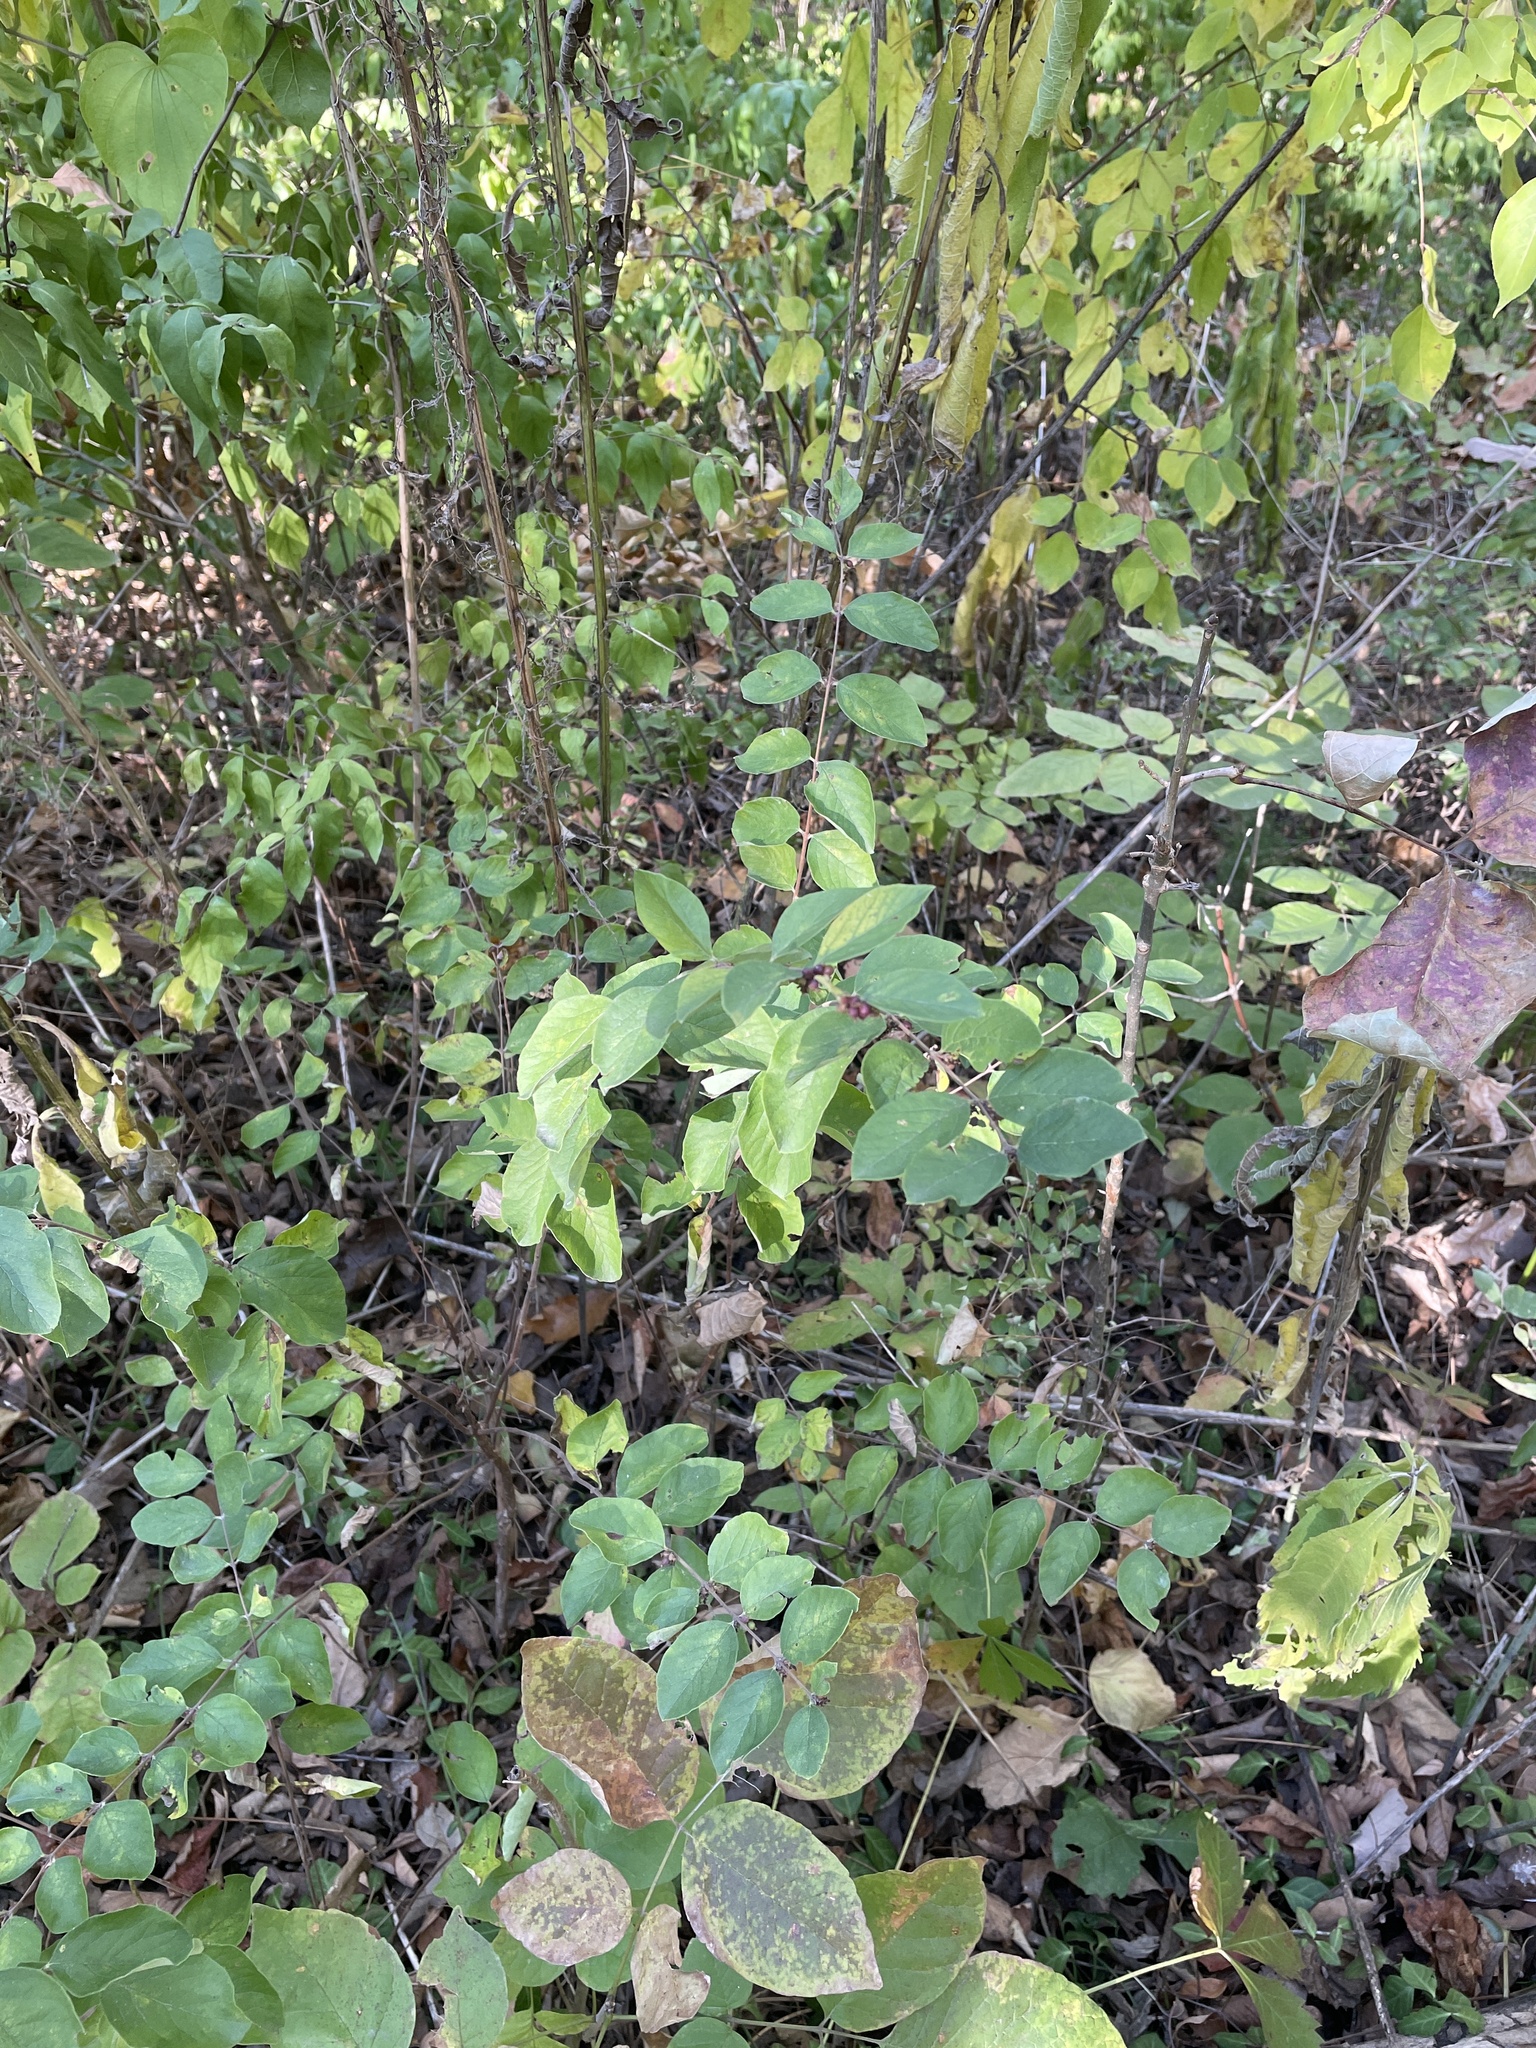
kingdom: Plantae
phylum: Tracheophyta
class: Magnoliopsida
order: Dipsacales
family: Caprifoliaceae
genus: Symphoricarpos
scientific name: Symphoricarpos orbiculatus
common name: Coralberry
